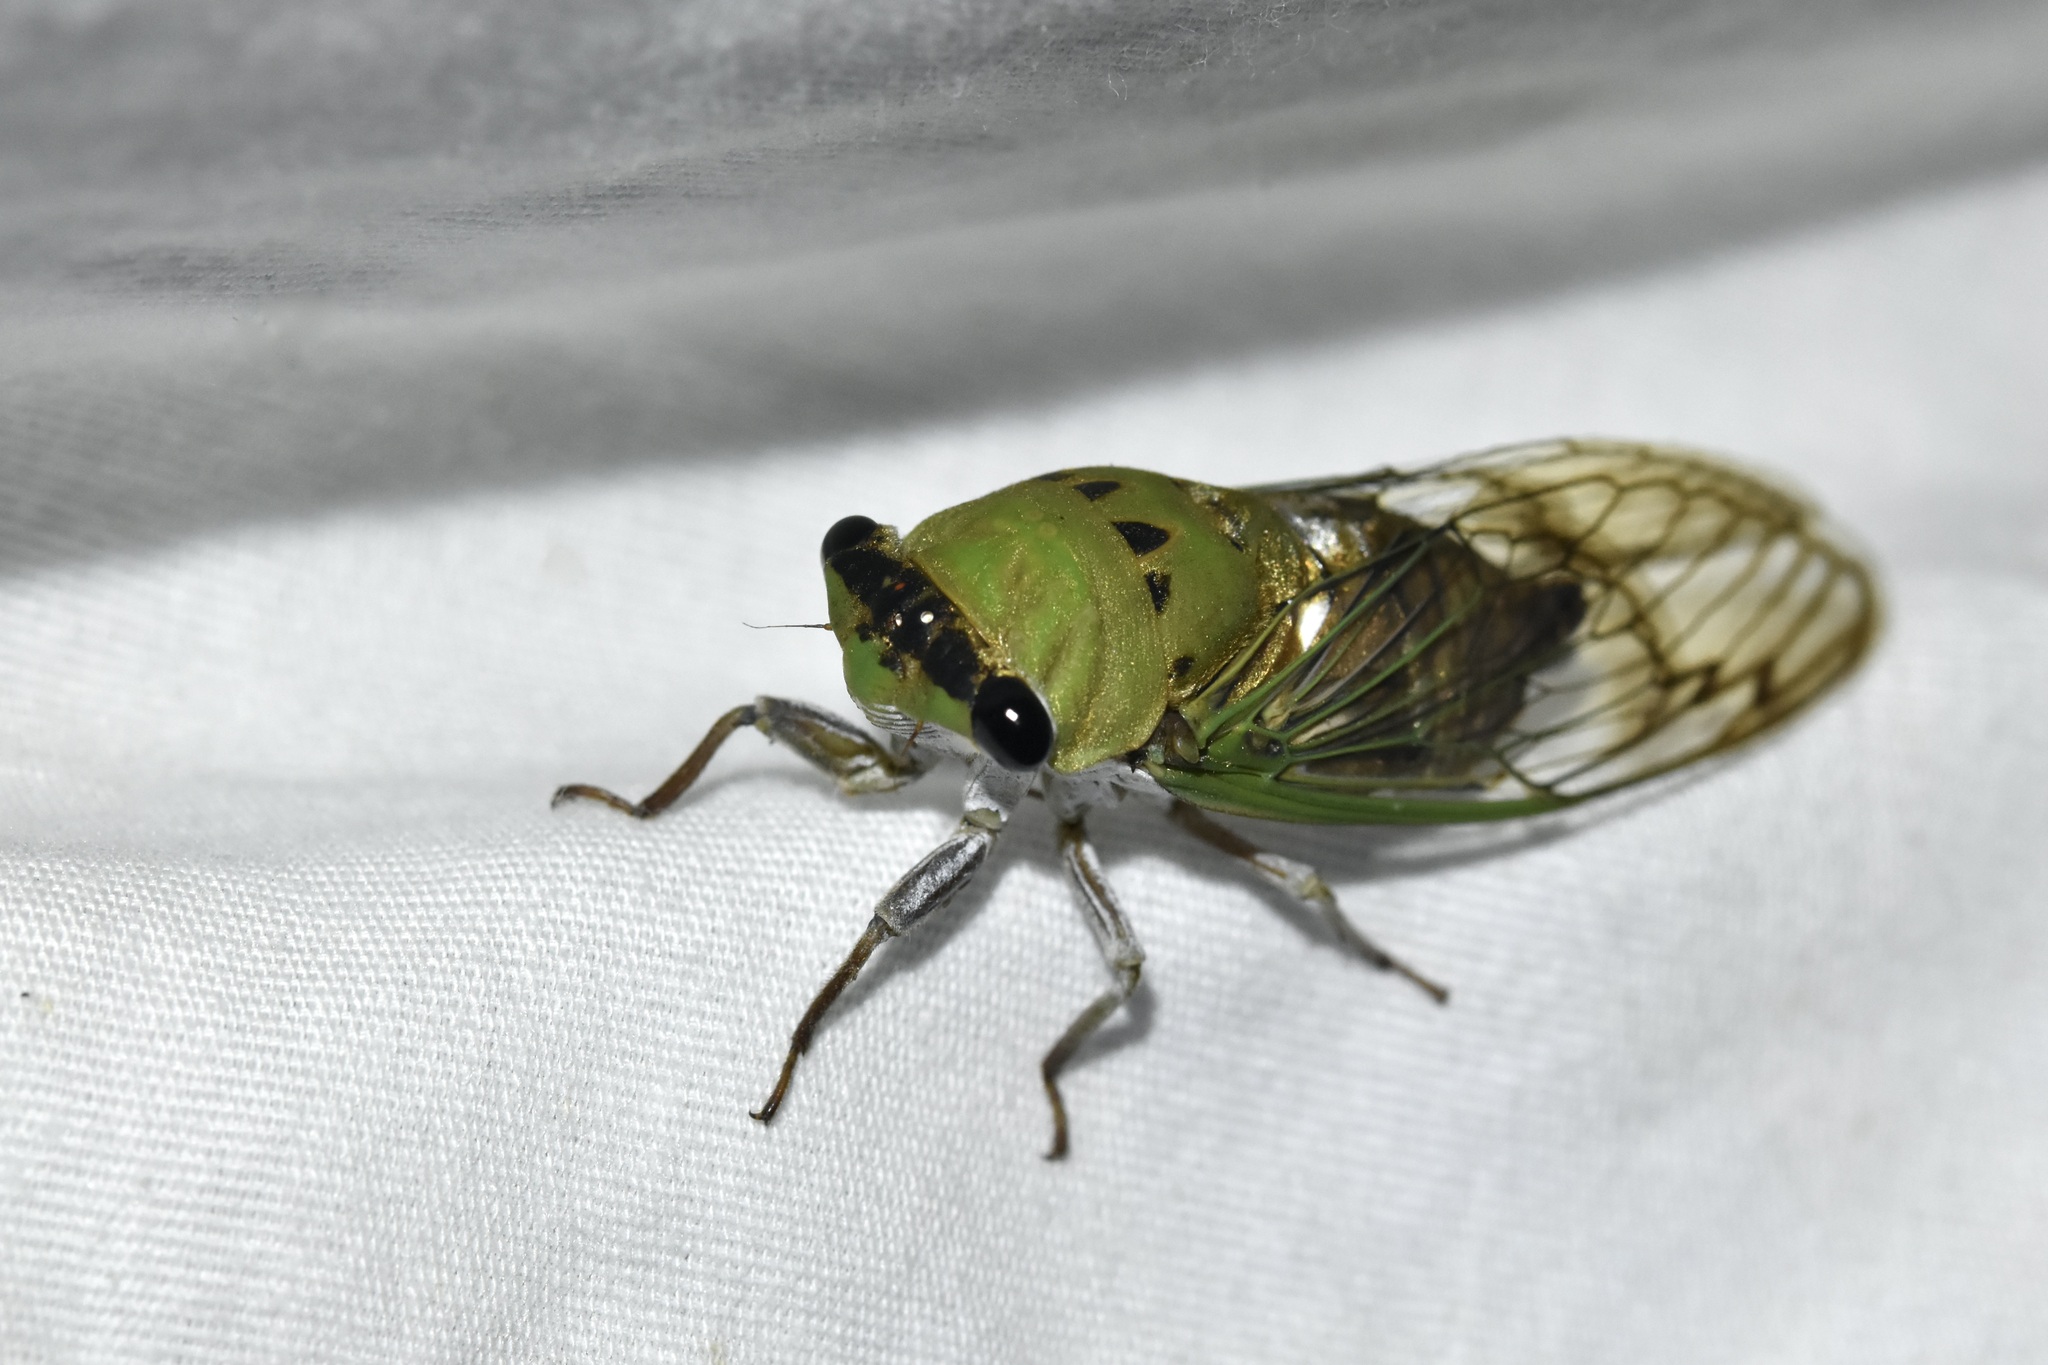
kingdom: Animalia
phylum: Arthropoda
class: Insecta
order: Hemiptera
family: Cicadidae
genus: Neotibicen
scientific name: Neotibicen superbus
